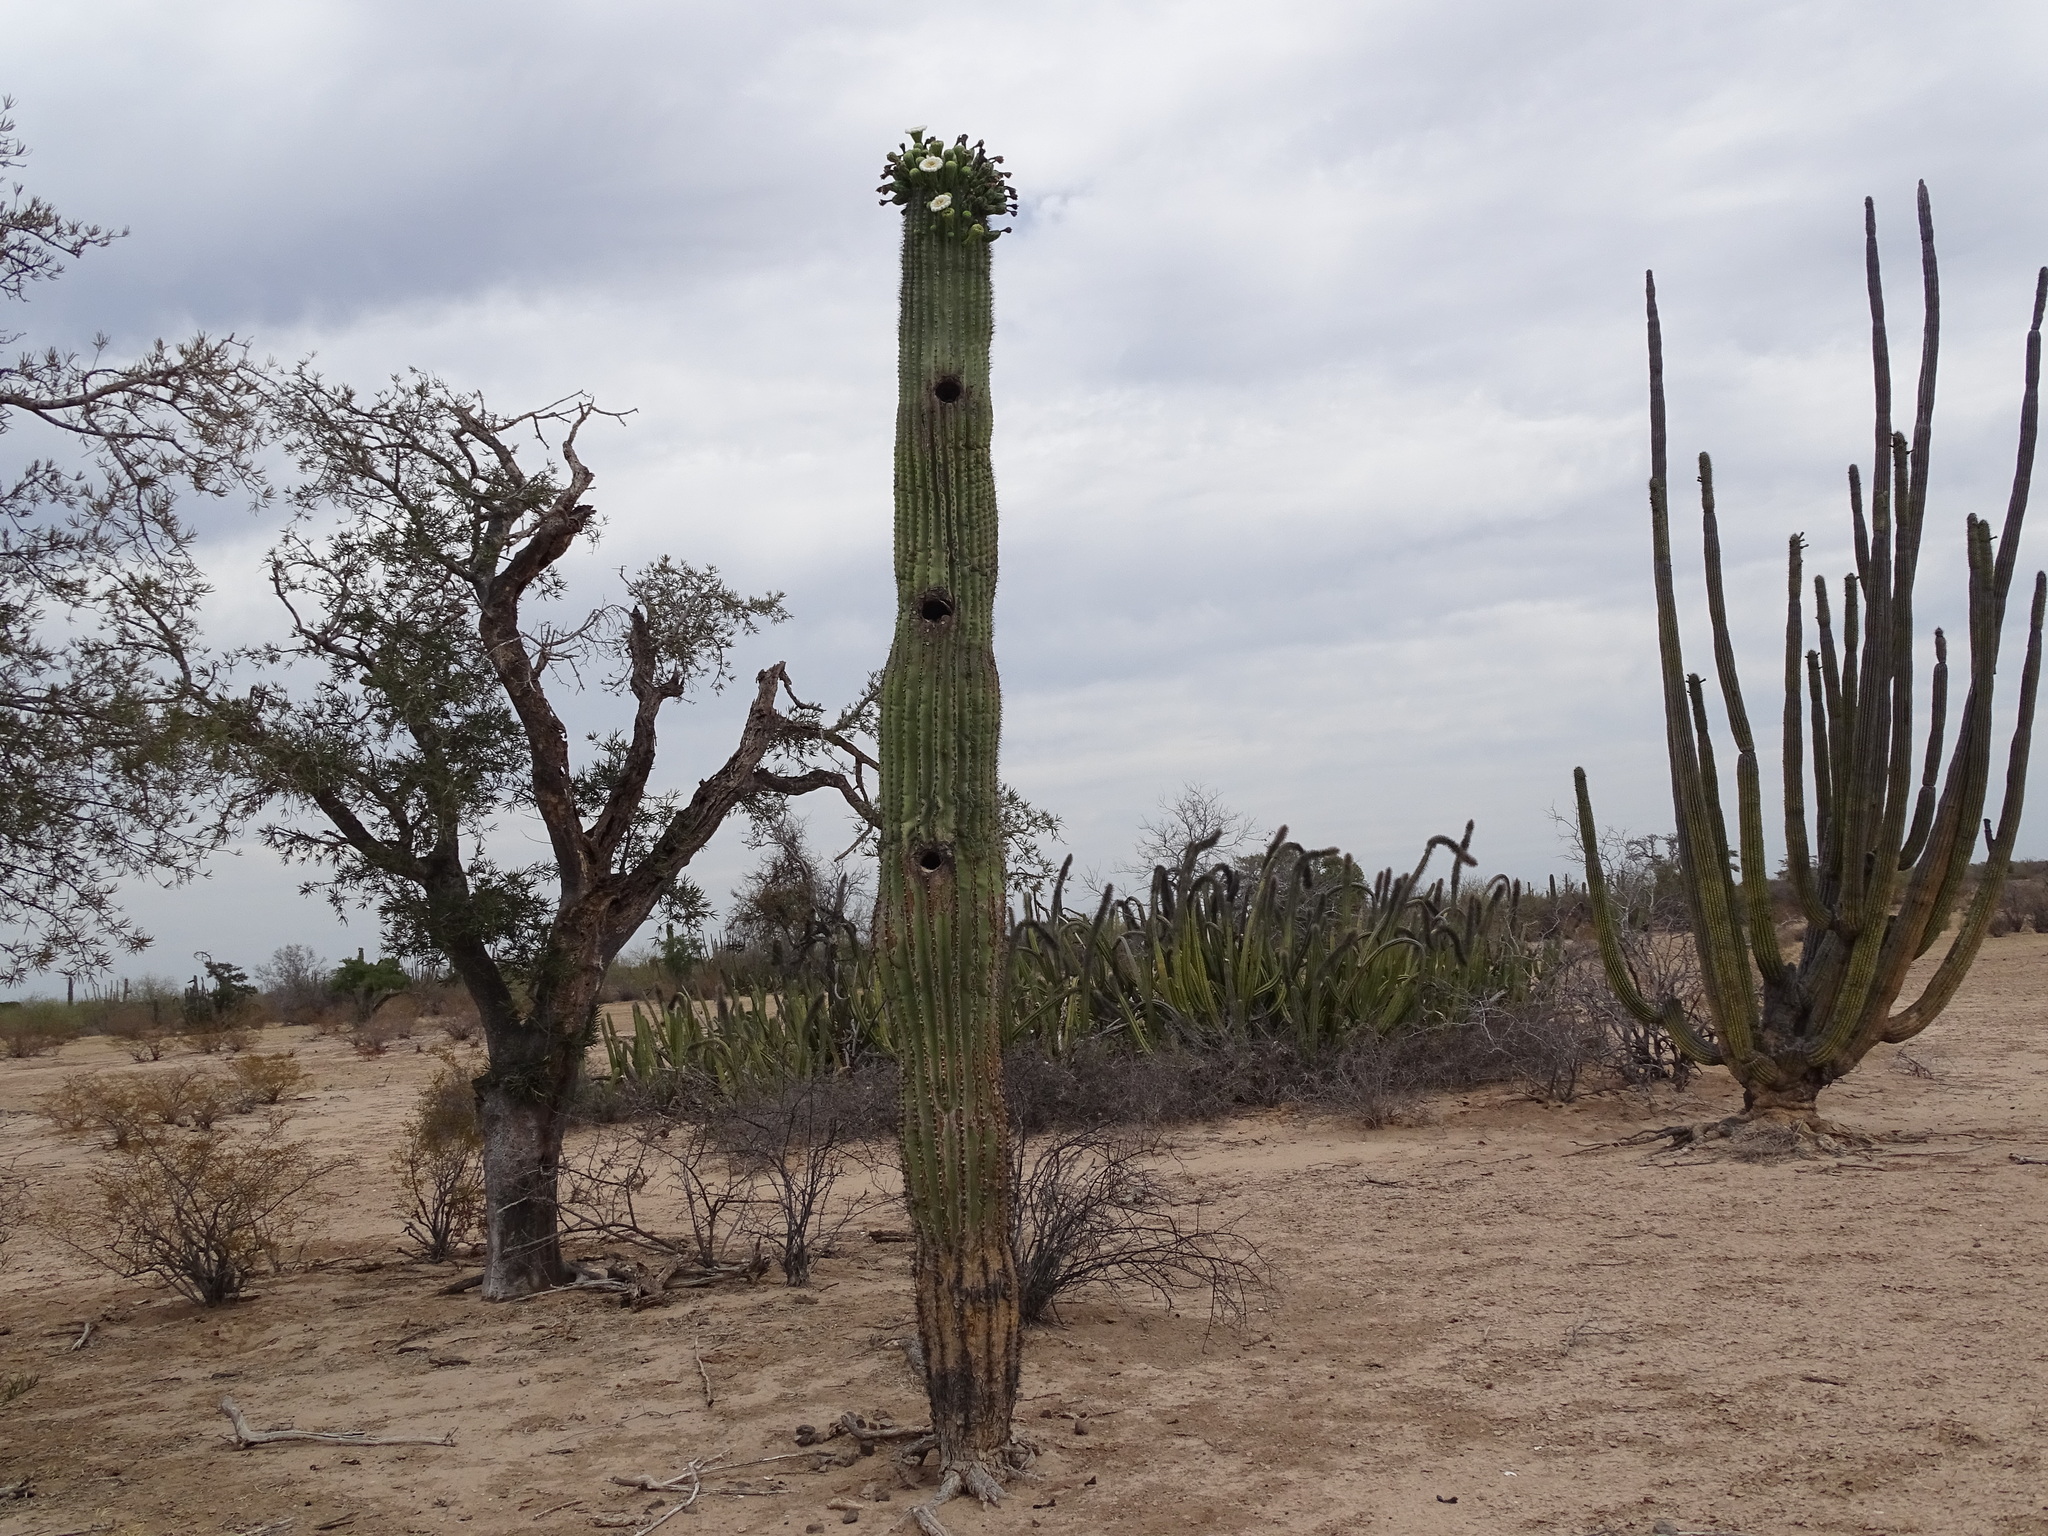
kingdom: Plantae
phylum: Tracheophyta
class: Magnoliopsida
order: Caryophyllales
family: Cactaceae
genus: Carnegiea
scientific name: Carnegiea gigantea
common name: Saguaro
